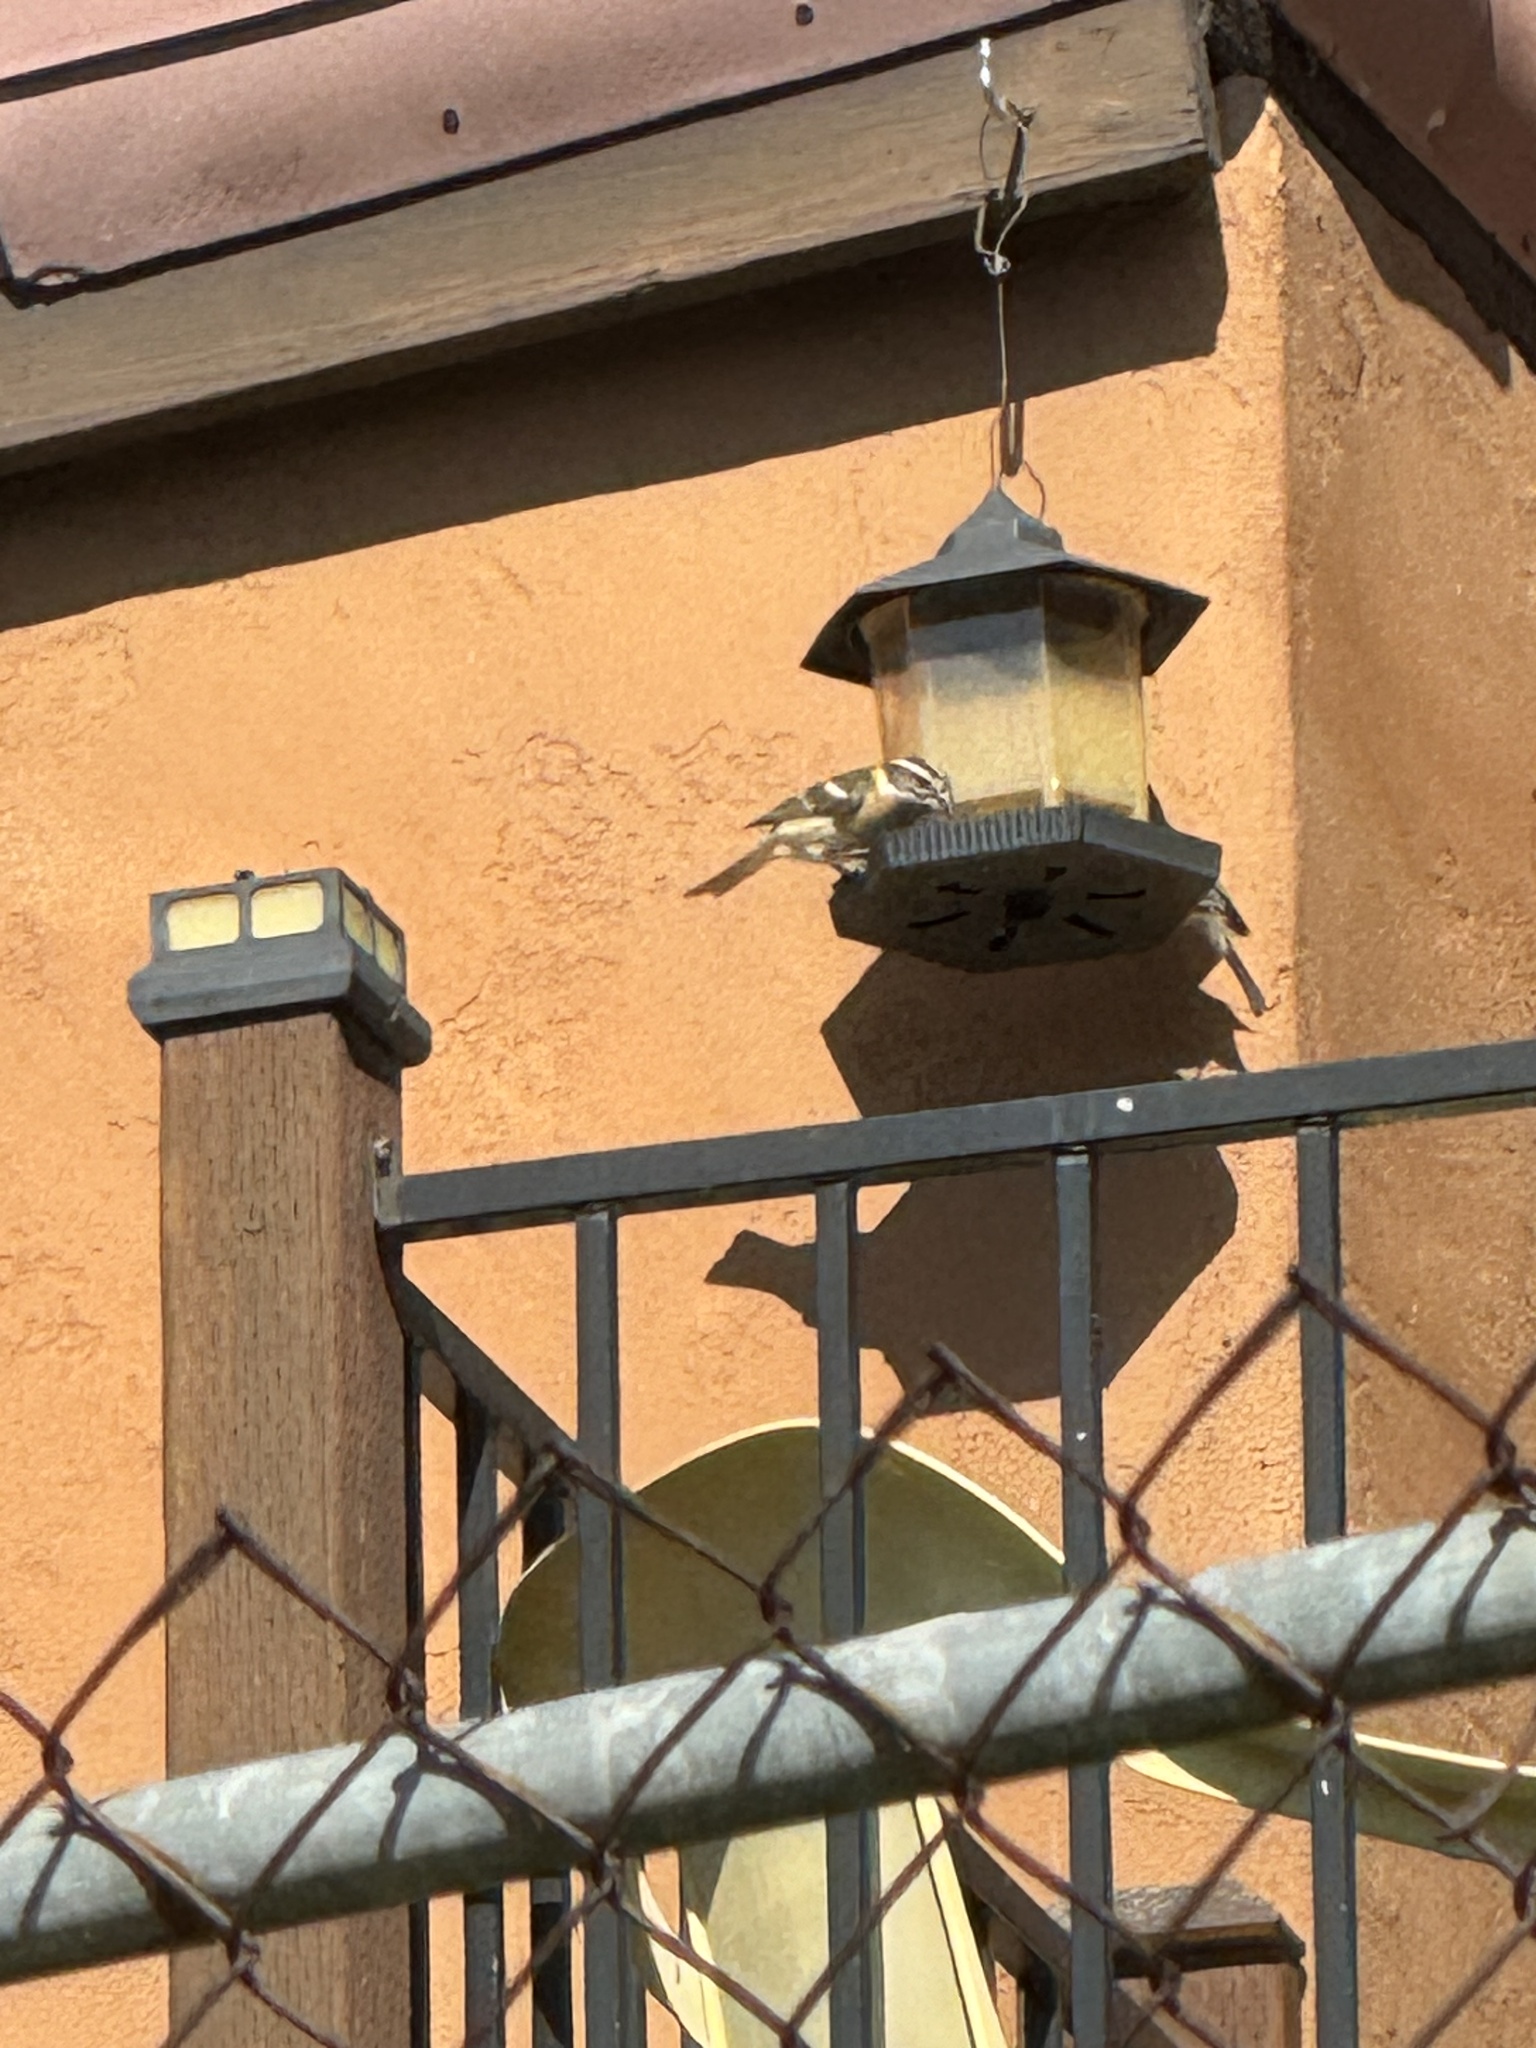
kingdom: Animalia
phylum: Chordata
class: Aves
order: Passeriformes
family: Cardinalidae
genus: Pheucticus
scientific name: Pheucticus melanocephalus
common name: Black-headed grosbeak
